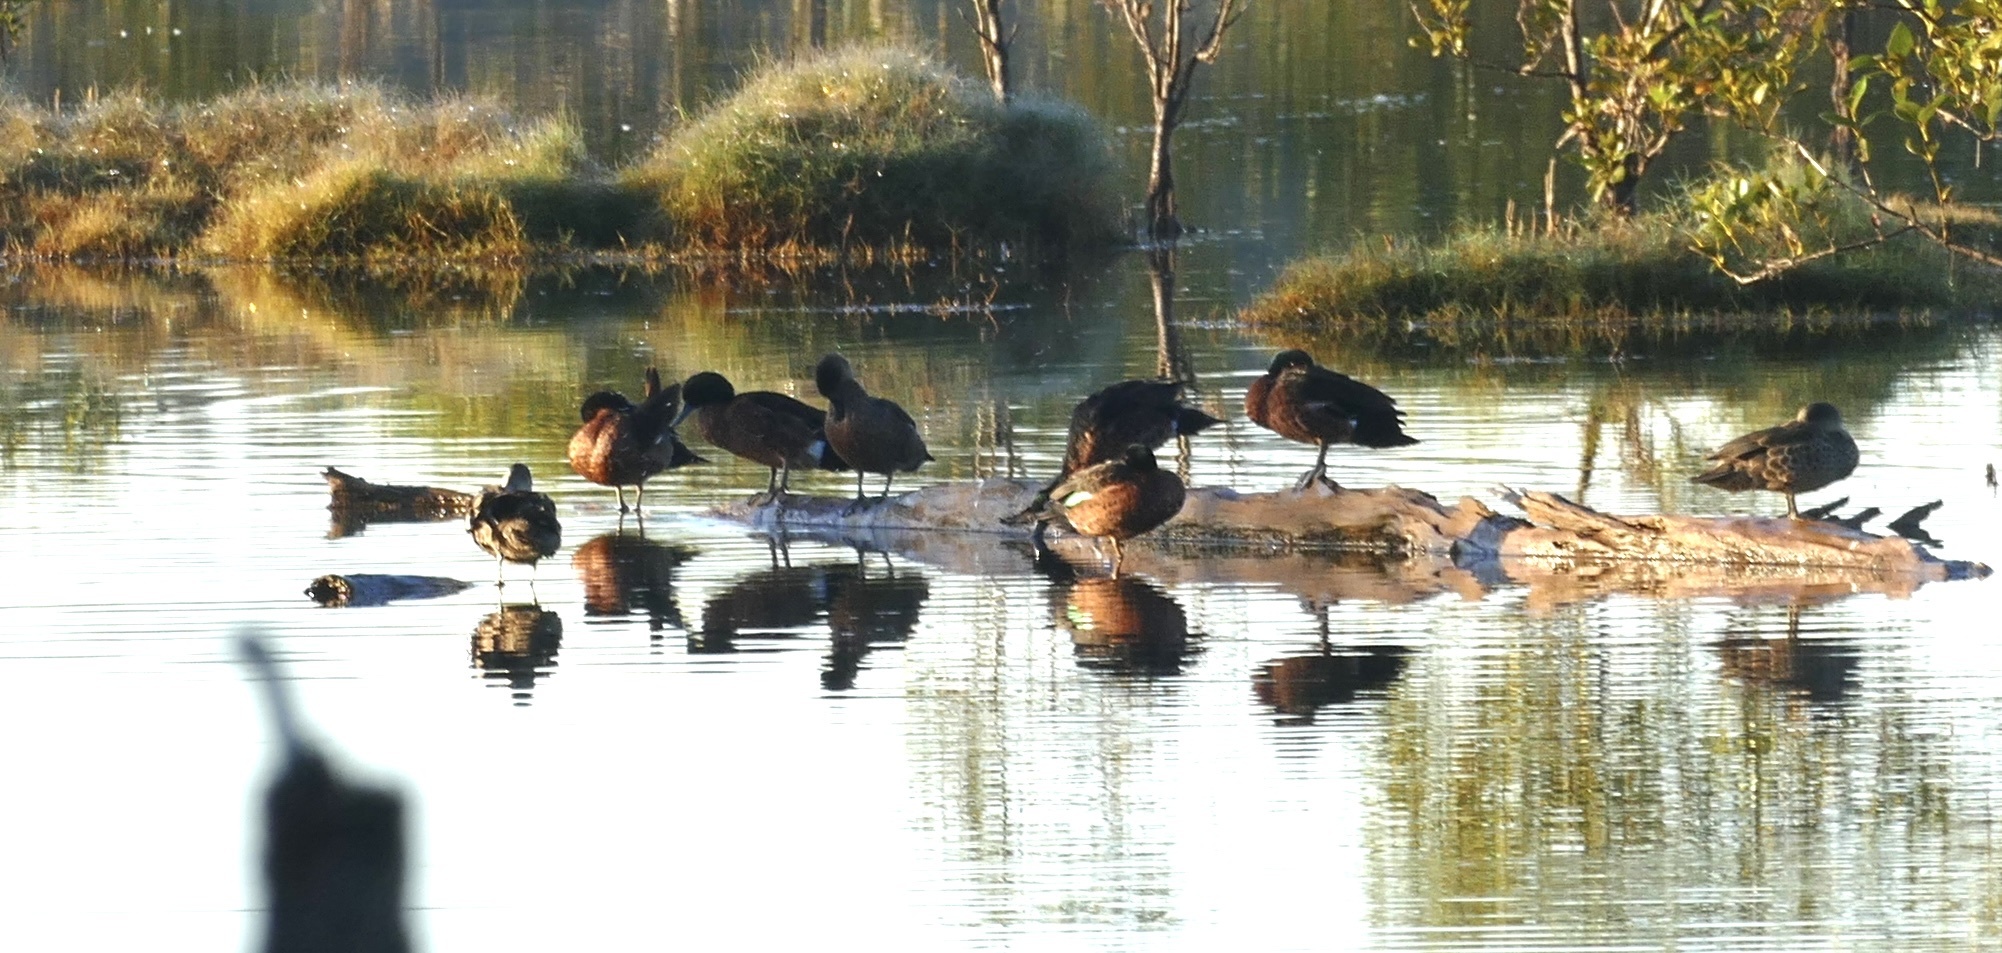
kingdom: Animalia
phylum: Chordata
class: Aves
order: Anseriformes
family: Anatidae
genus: Anas
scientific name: Anas castanea
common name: Chestnut teal
